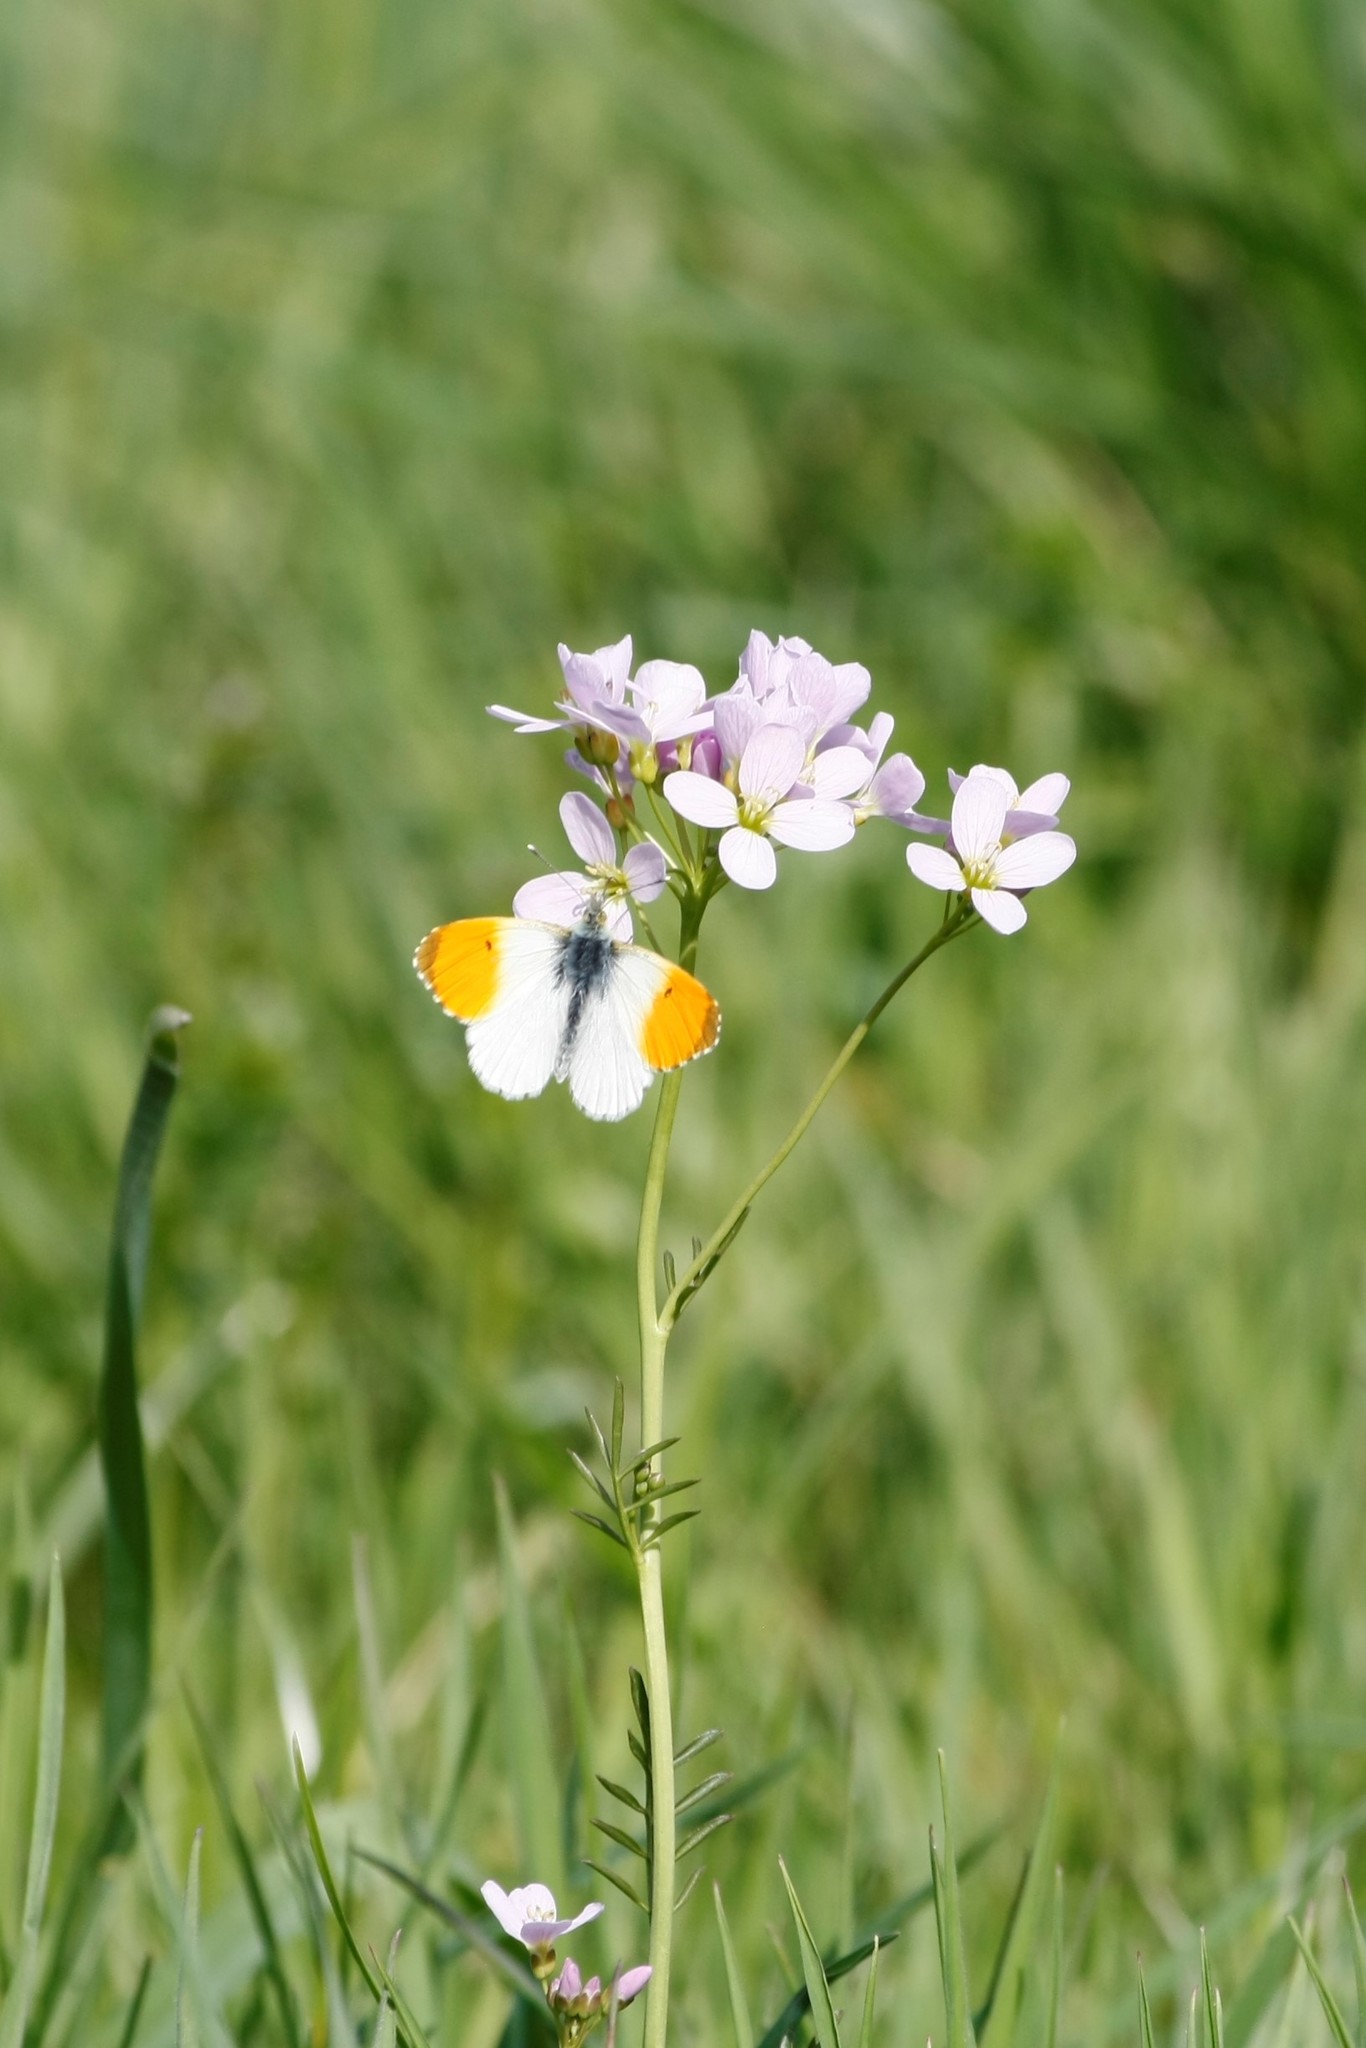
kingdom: Animalia
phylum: Arthropoda
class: Insecta
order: Lepidoptera
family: Pieridae
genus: Anthocharis
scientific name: Anthocharis cardamines
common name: Orange-tip
